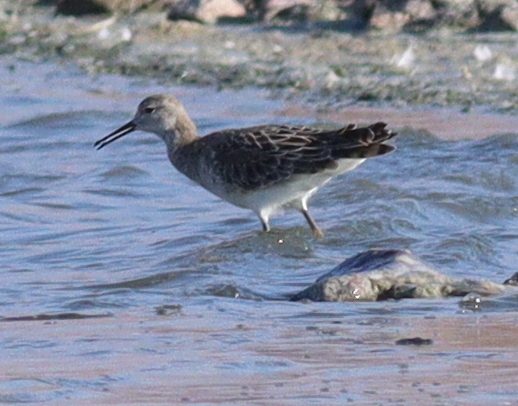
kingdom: Animalia
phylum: Chordata
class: Aves
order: Charadriiformes
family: Scolopacidae
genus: Calidris
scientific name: Calidris pugnax
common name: Ruff
